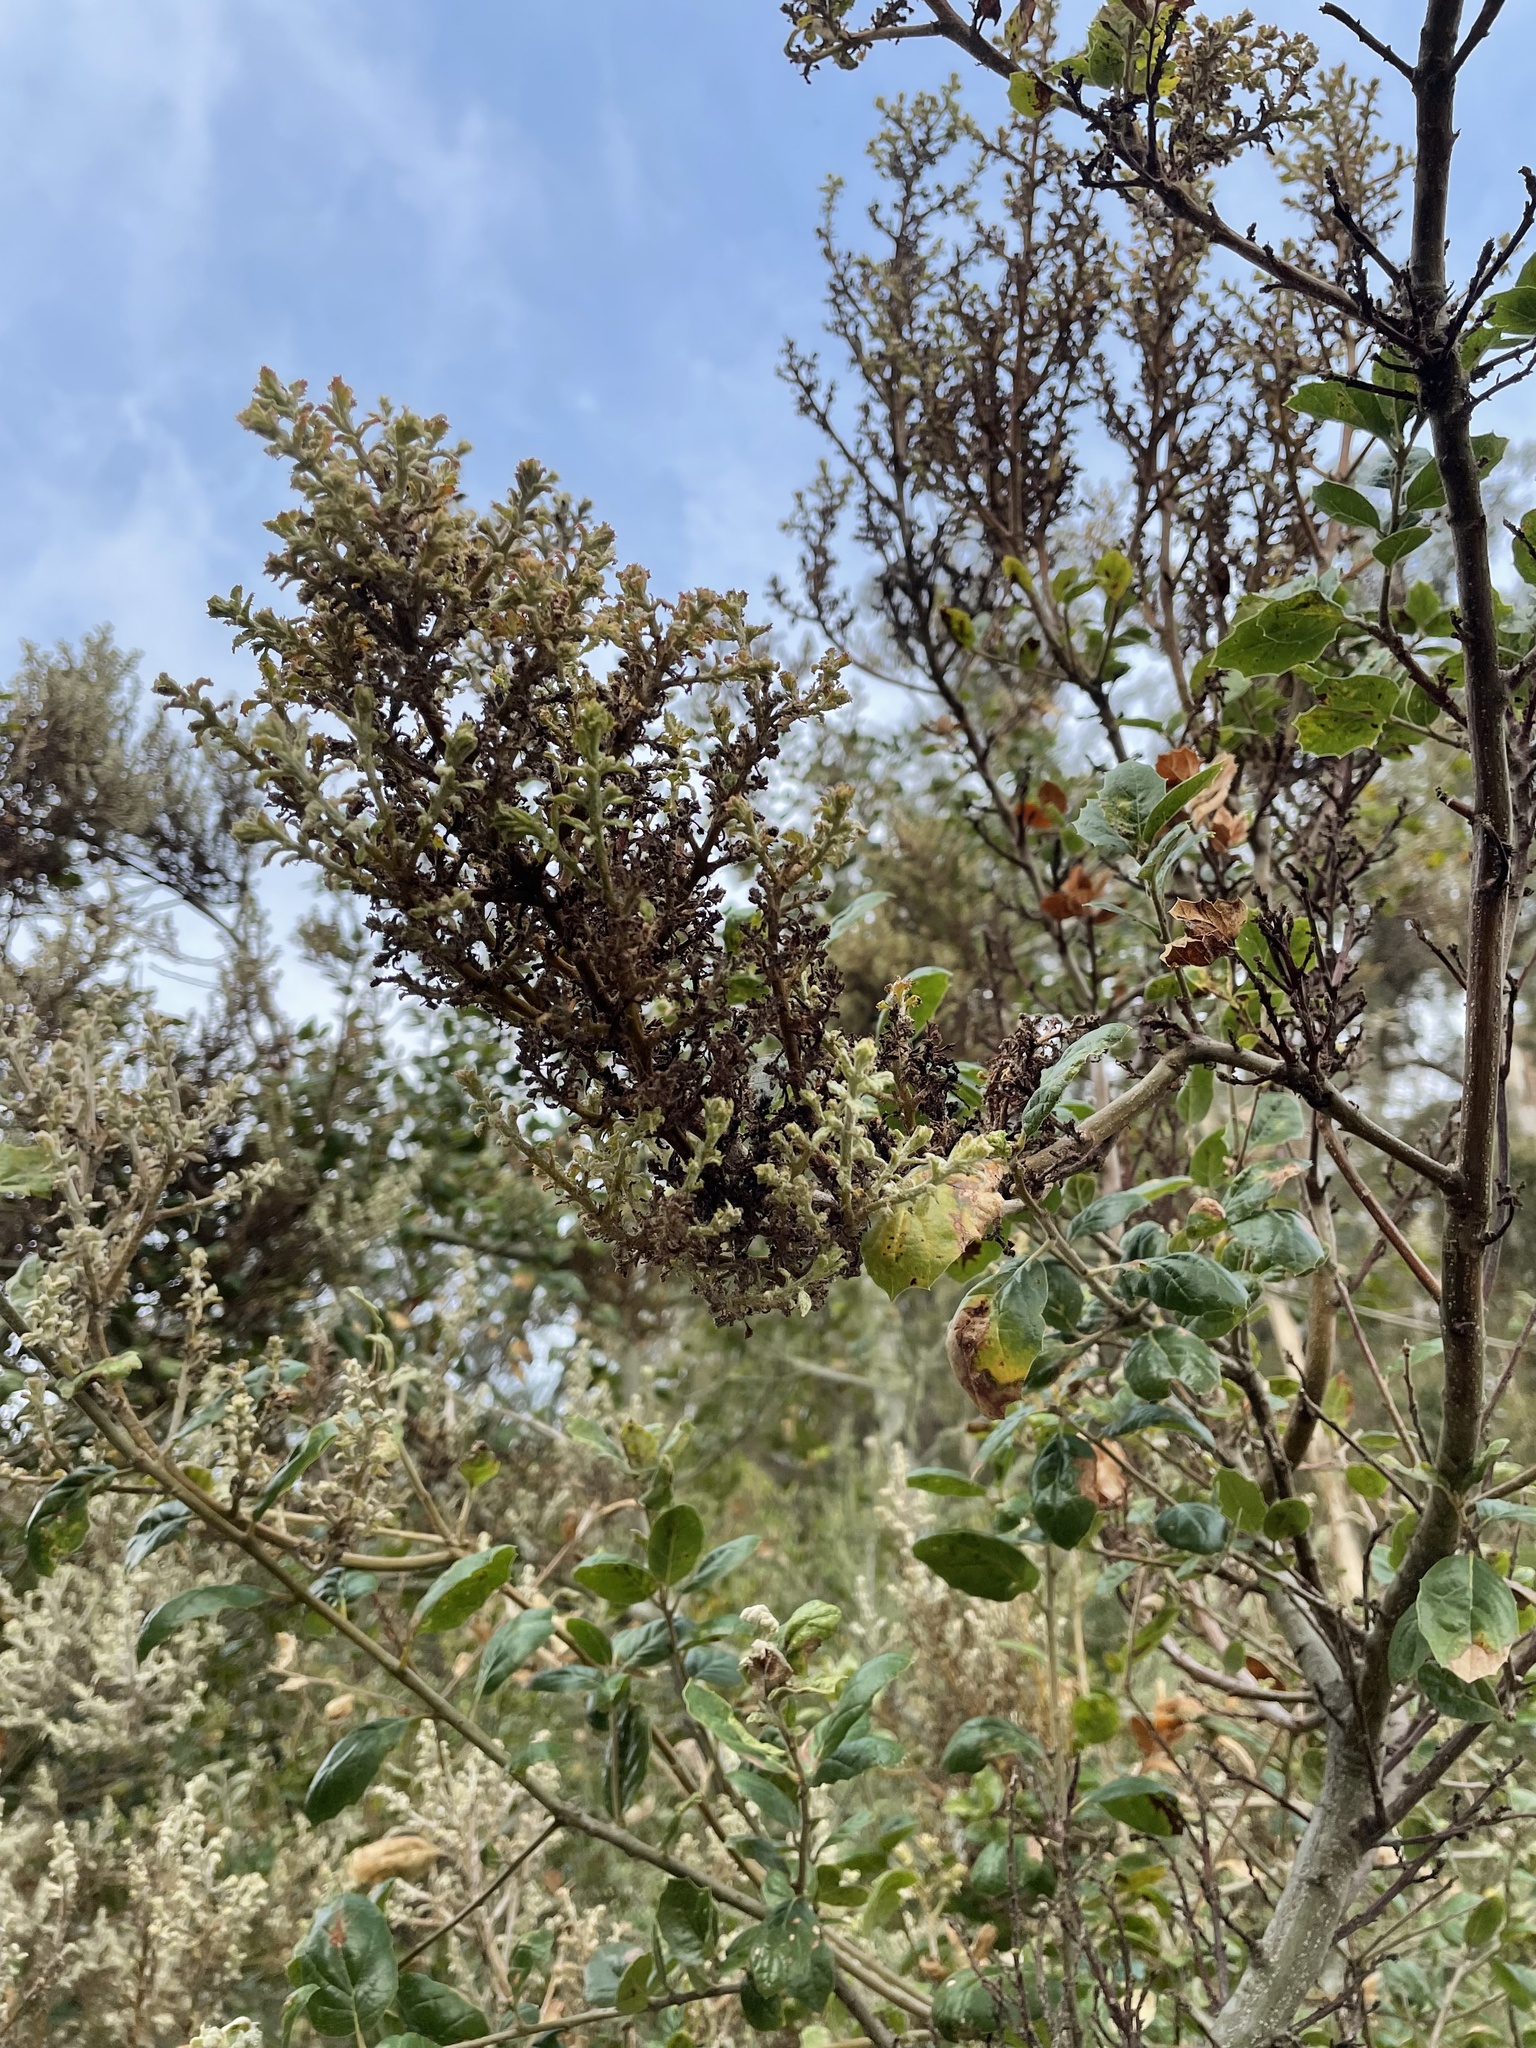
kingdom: Fungi
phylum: Ascomycota
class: Leotiomycetes
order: Helotiales
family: Erysiphaceae
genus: Cystotheca
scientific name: Cystotheca lanestris
